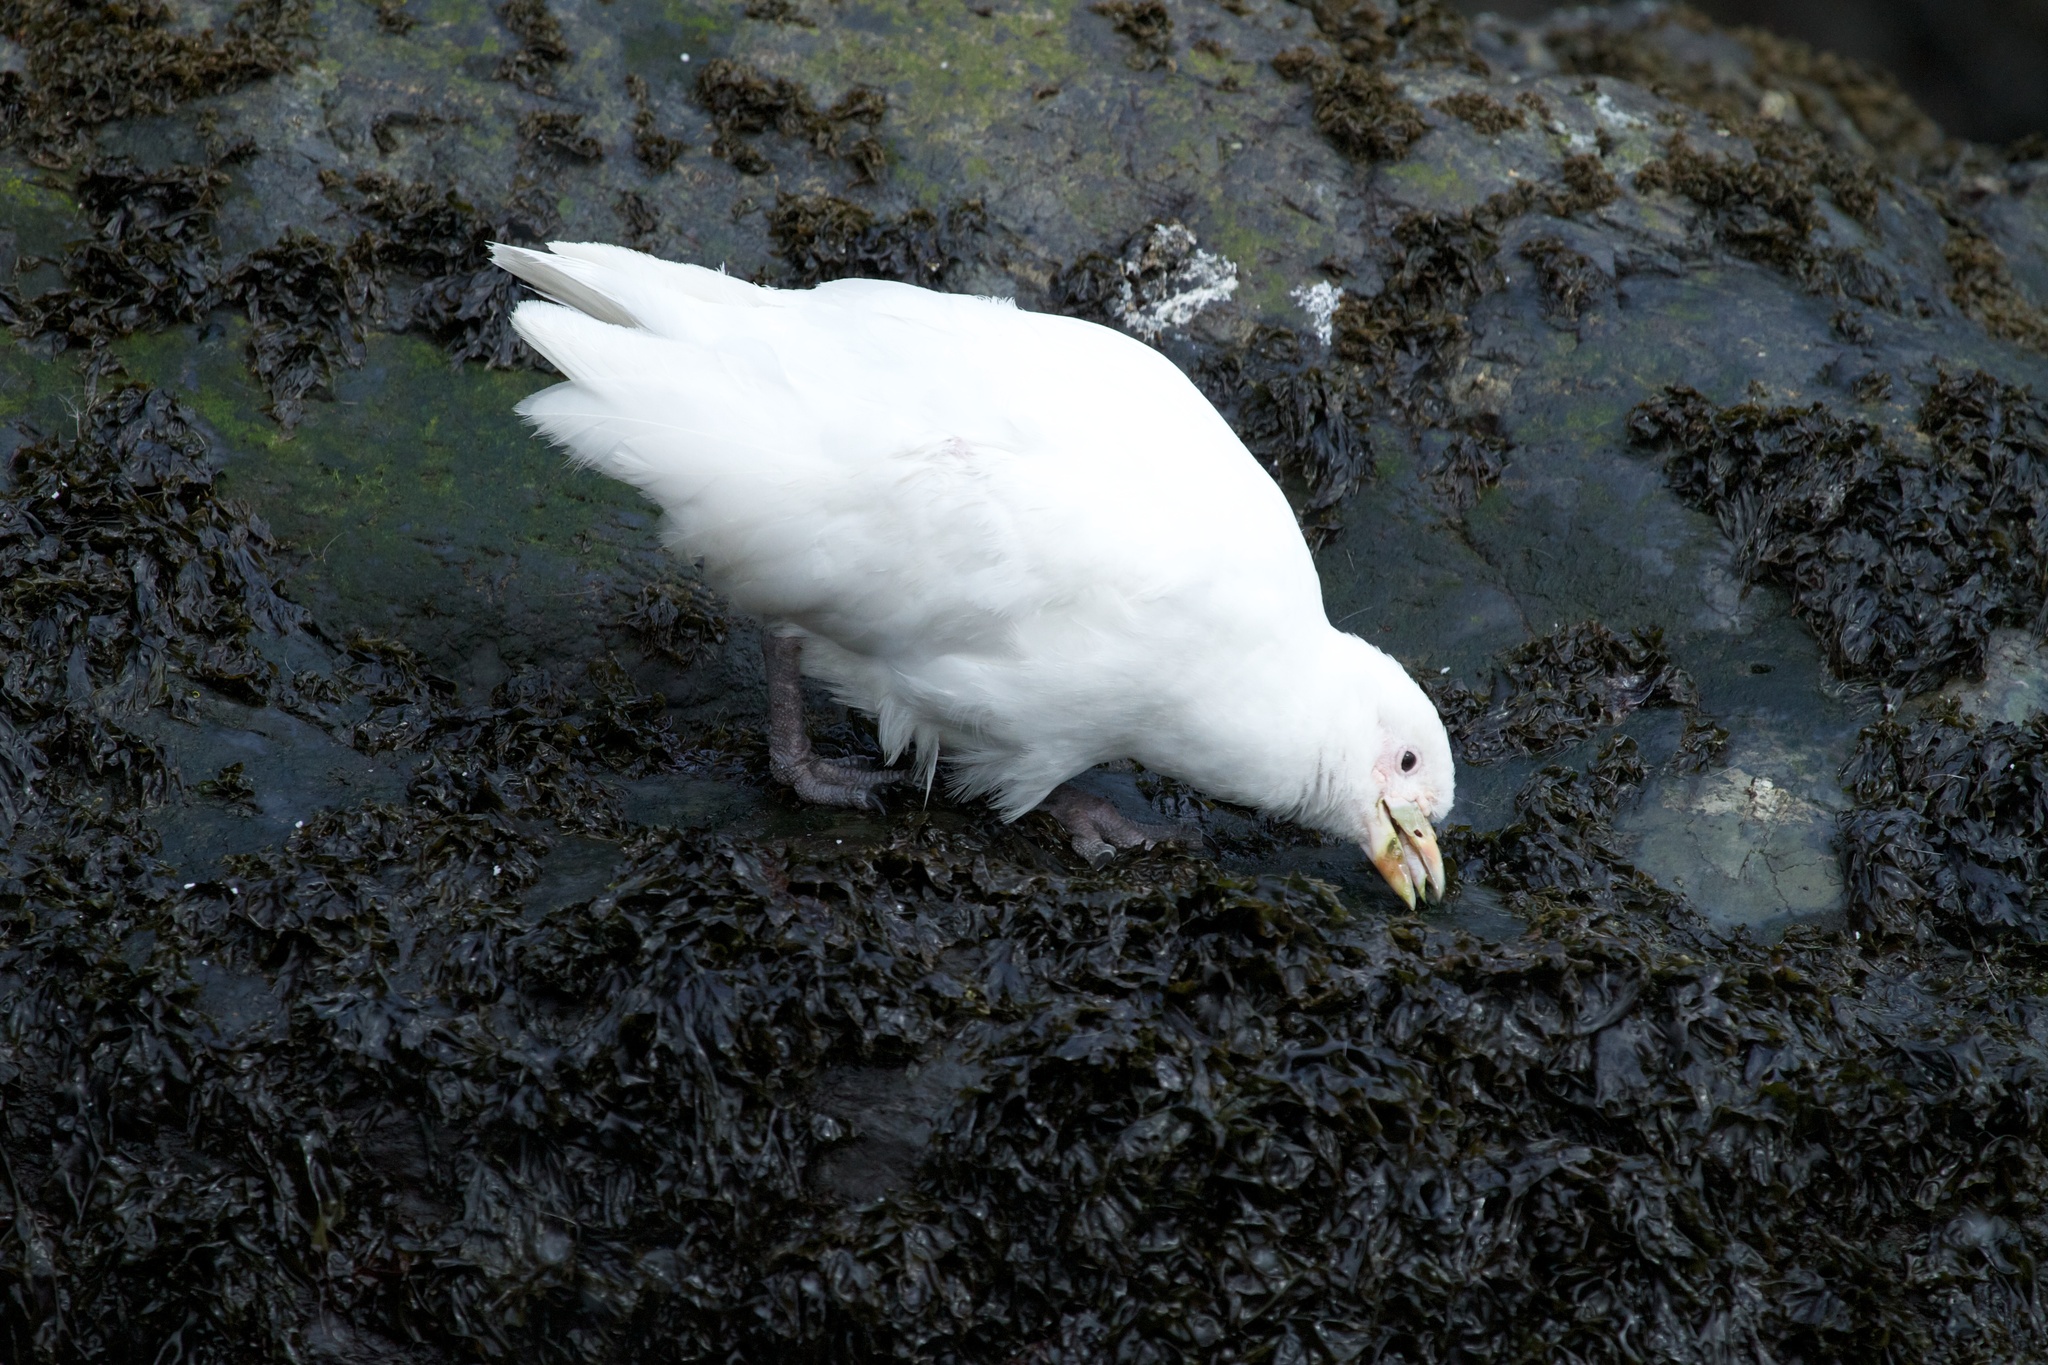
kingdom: Animalia
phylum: Chordata
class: Aves
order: Charadriiformes
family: Chionidae
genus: Chionis
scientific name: Chionis albus
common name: Snowy sheathbill
